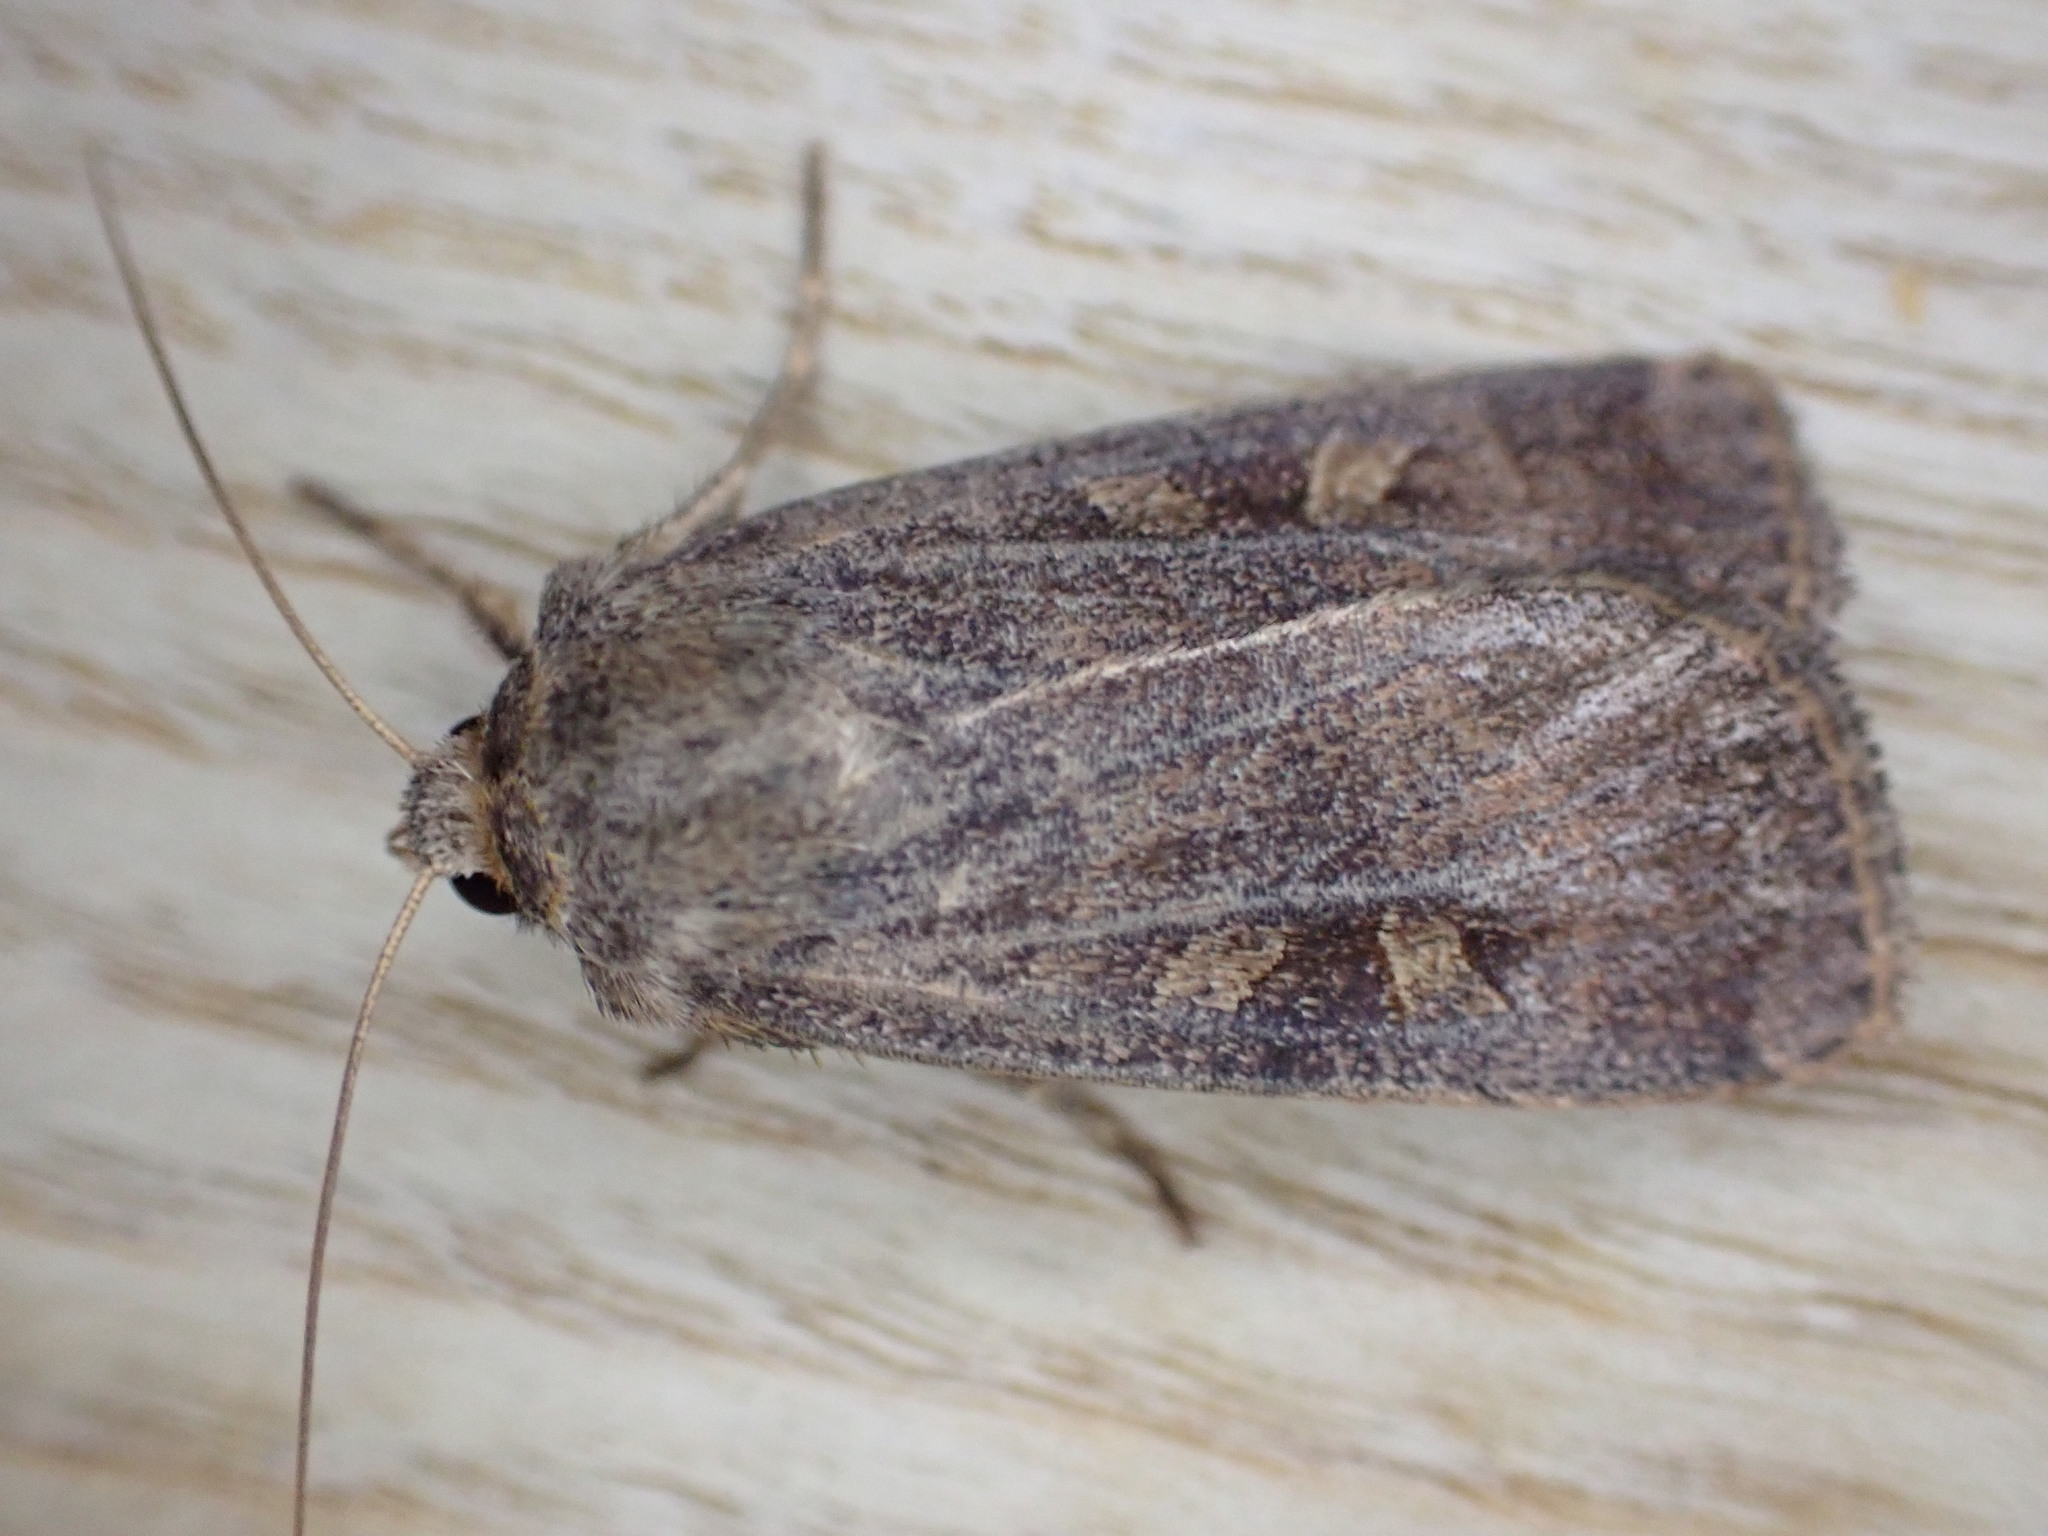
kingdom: Animalia
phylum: Arthropoda
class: Insecta
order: Lepidoptera
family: Noctuidae
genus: Xestia
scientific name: Xestia xanthographa
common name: Square-spot rustic
